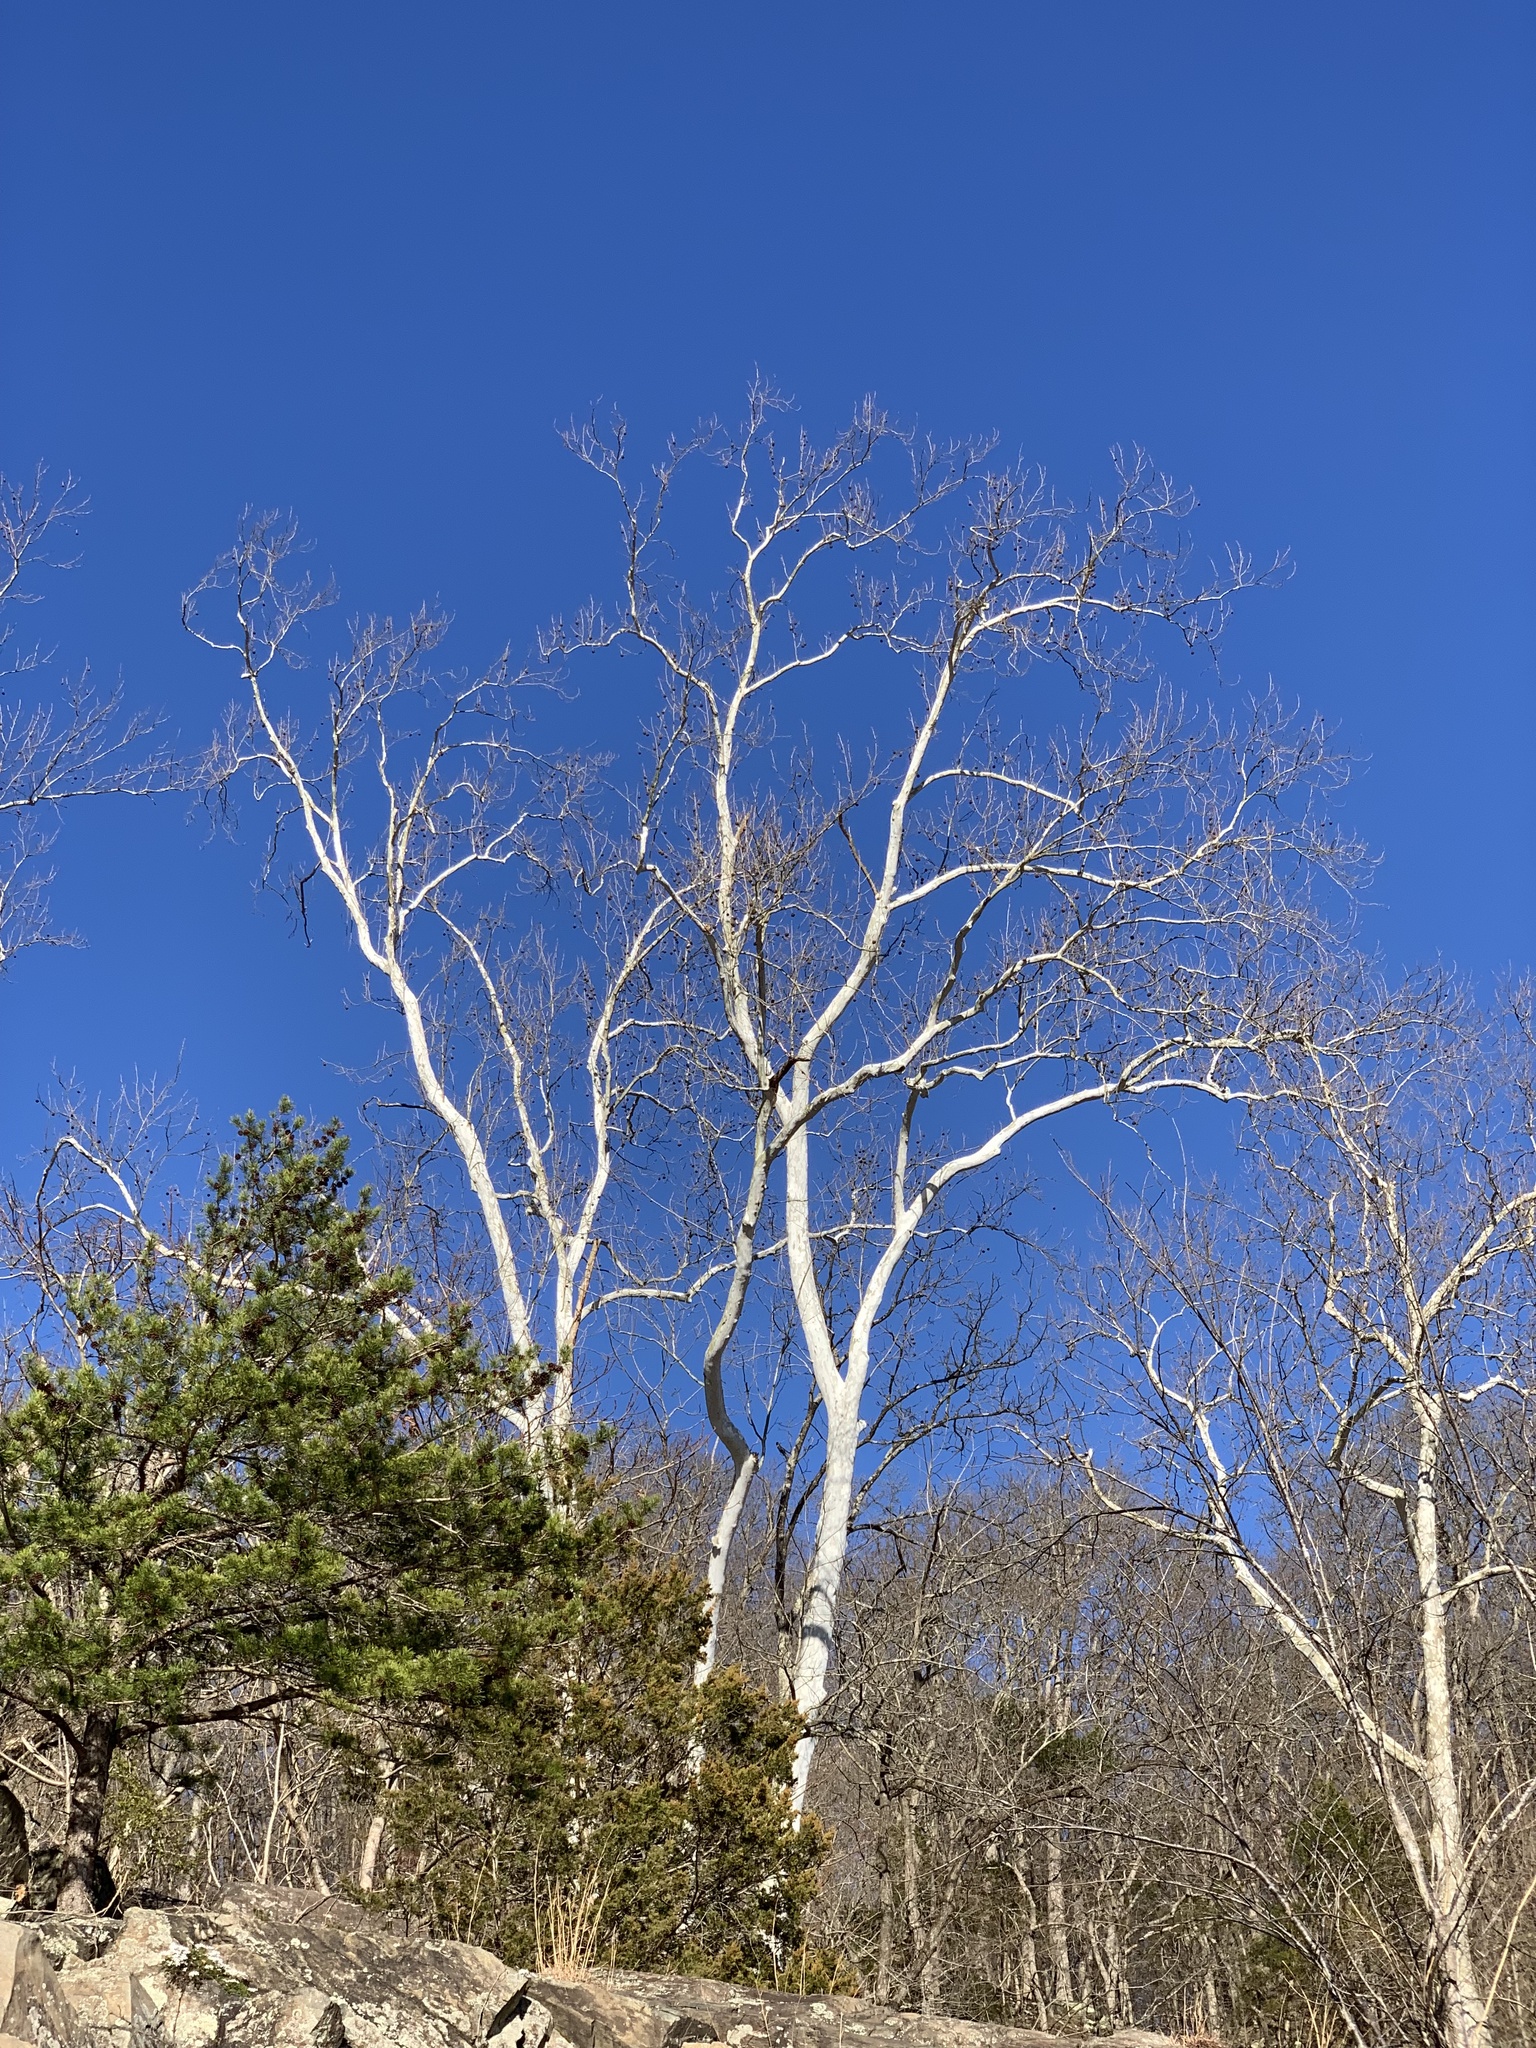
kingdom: Plantae
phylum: Tracheophyta
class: Magnoliopsida
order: Proteales
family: Platanaceae
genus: Platanus
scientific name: Platanus occidentalis
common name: American sycamore
